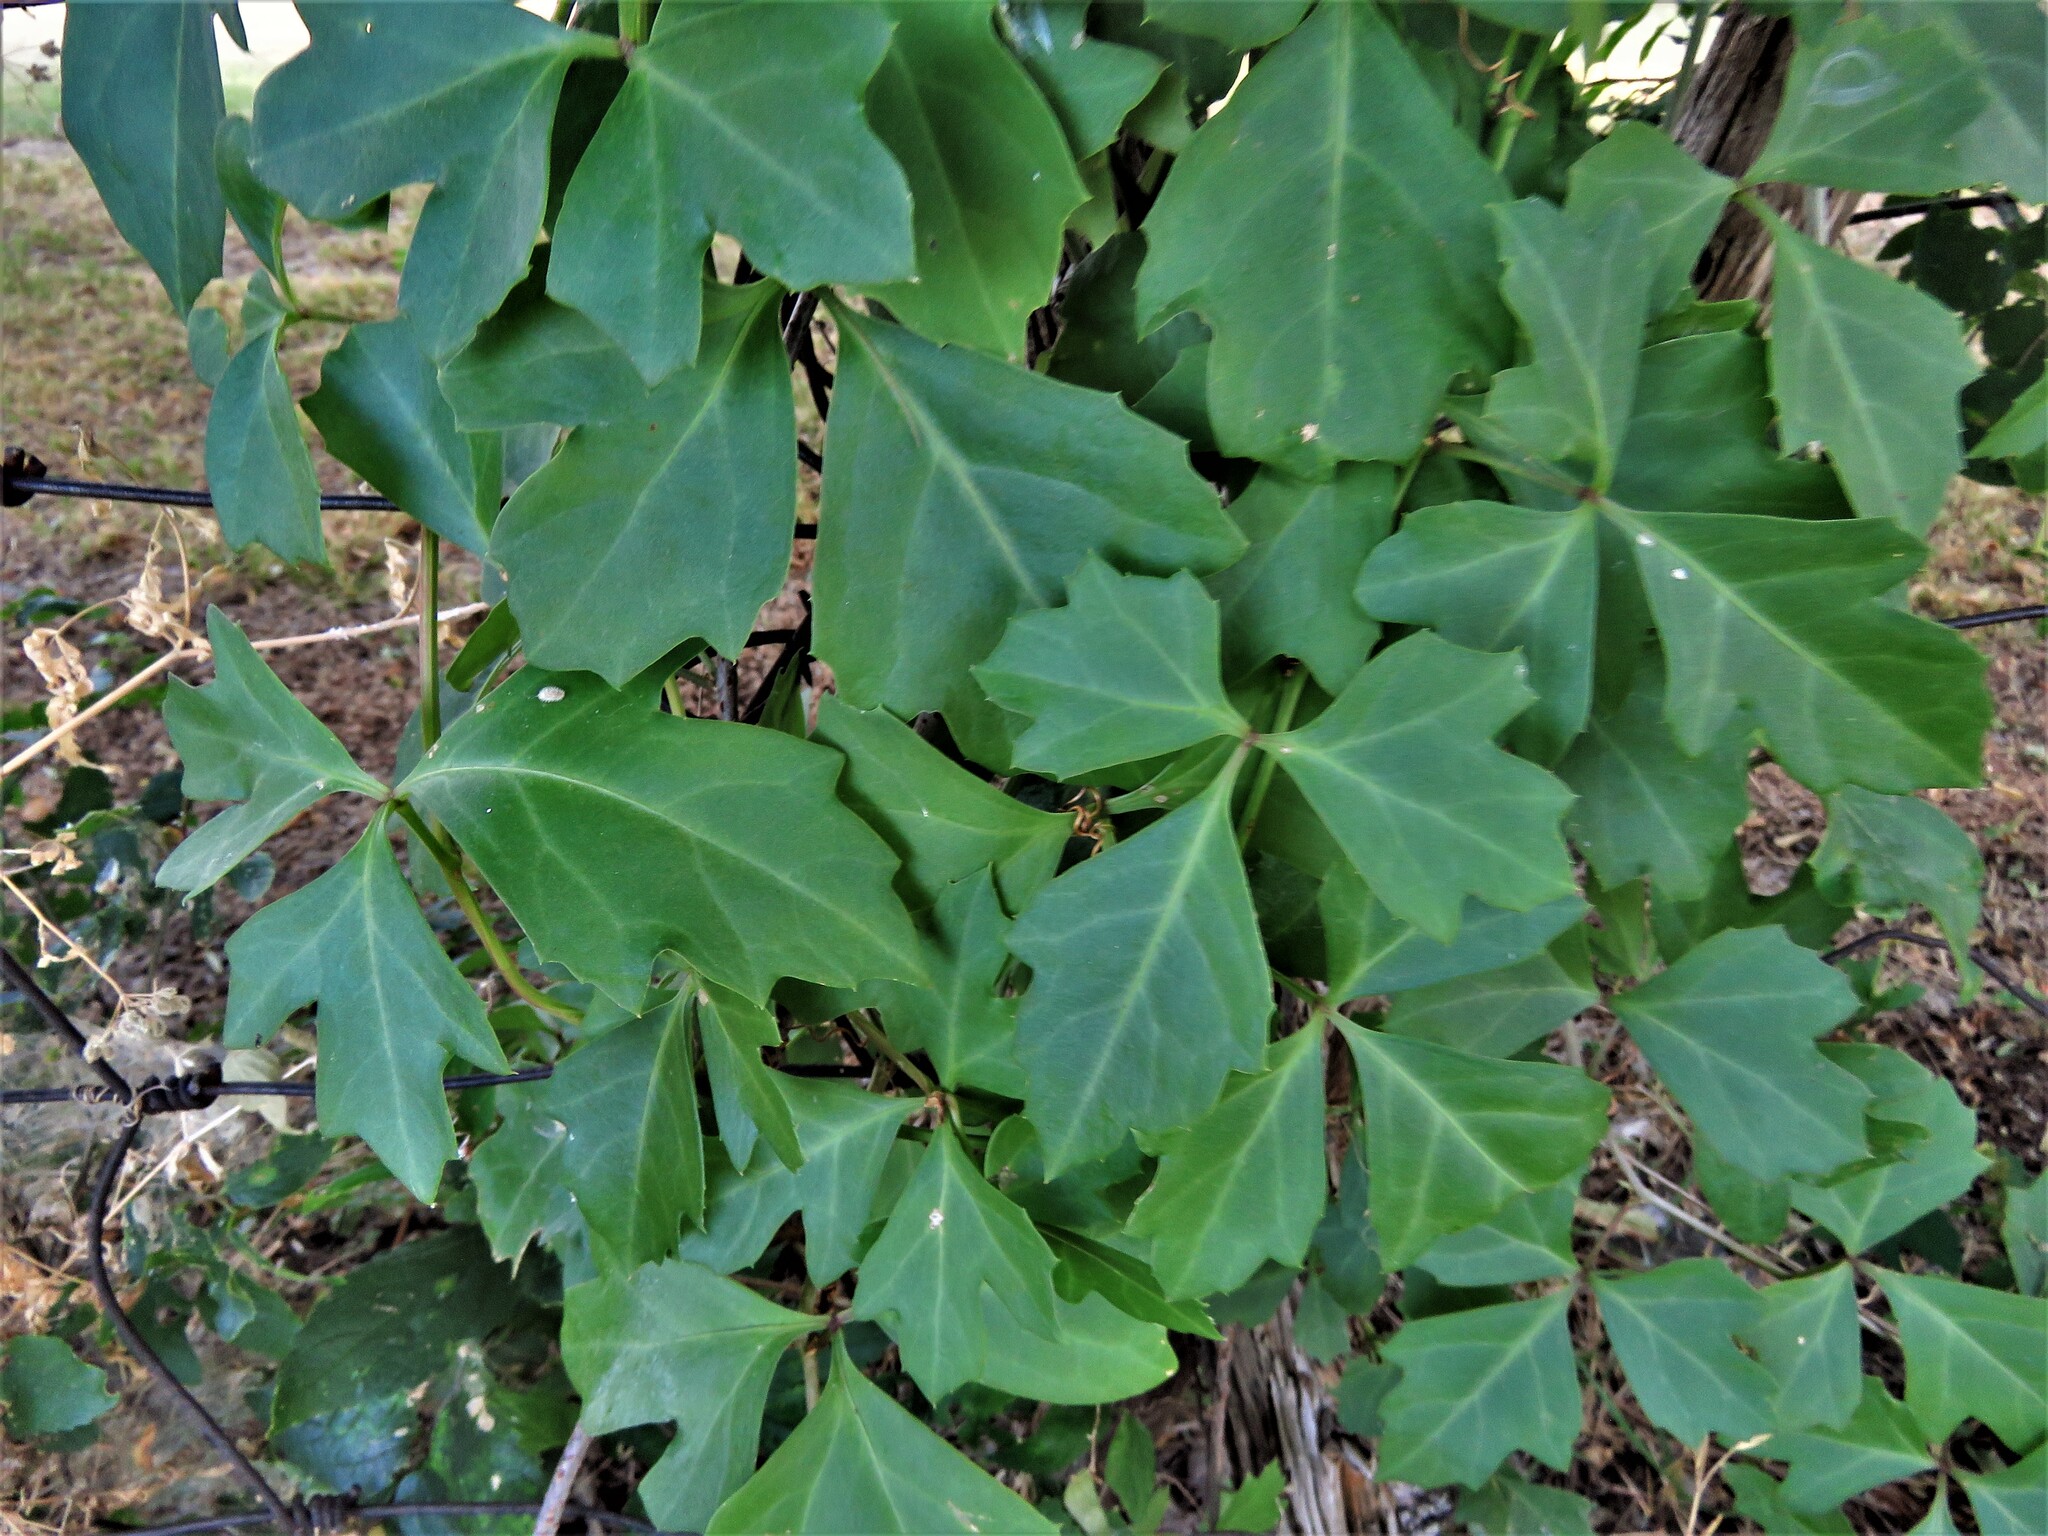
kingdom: Plantae
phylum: Tracheophyta
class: Magnoliopsida
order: Vitales
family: Vitaceae
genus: Cissus
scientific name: Cissus trifoliata
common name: Vine-sorrel
